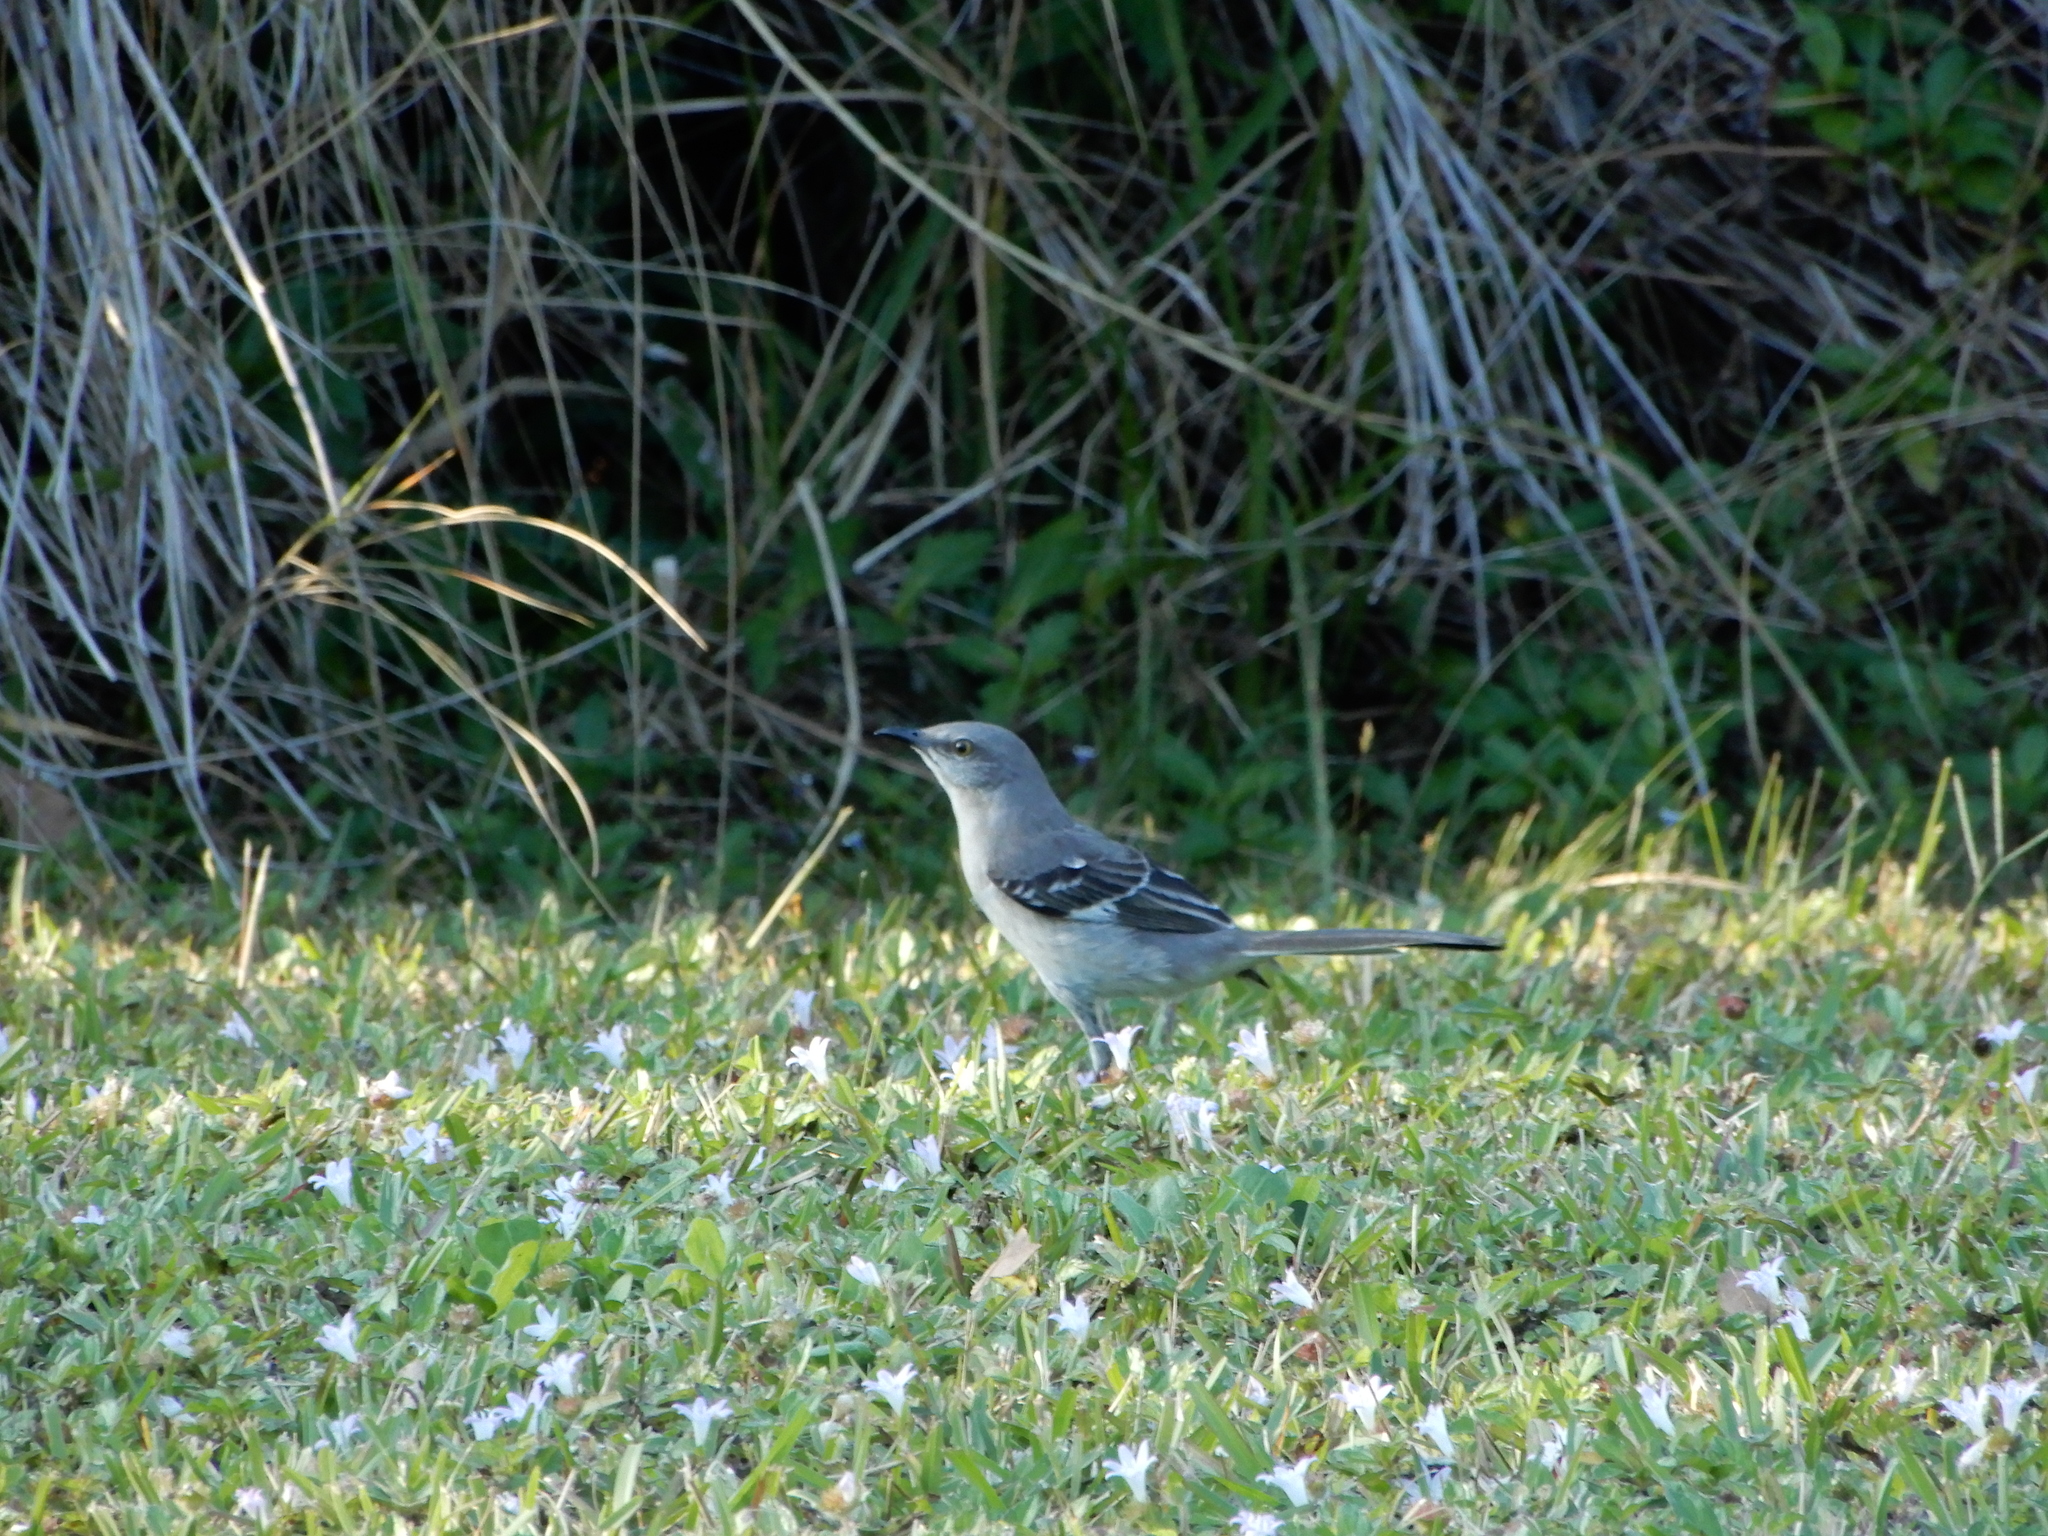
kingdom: Animalia
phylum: Chordata
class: Aves
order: Passeriformes
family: Mimidae
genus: Mimus
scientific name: Mimus polyglottos
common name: Northern mockingbird
